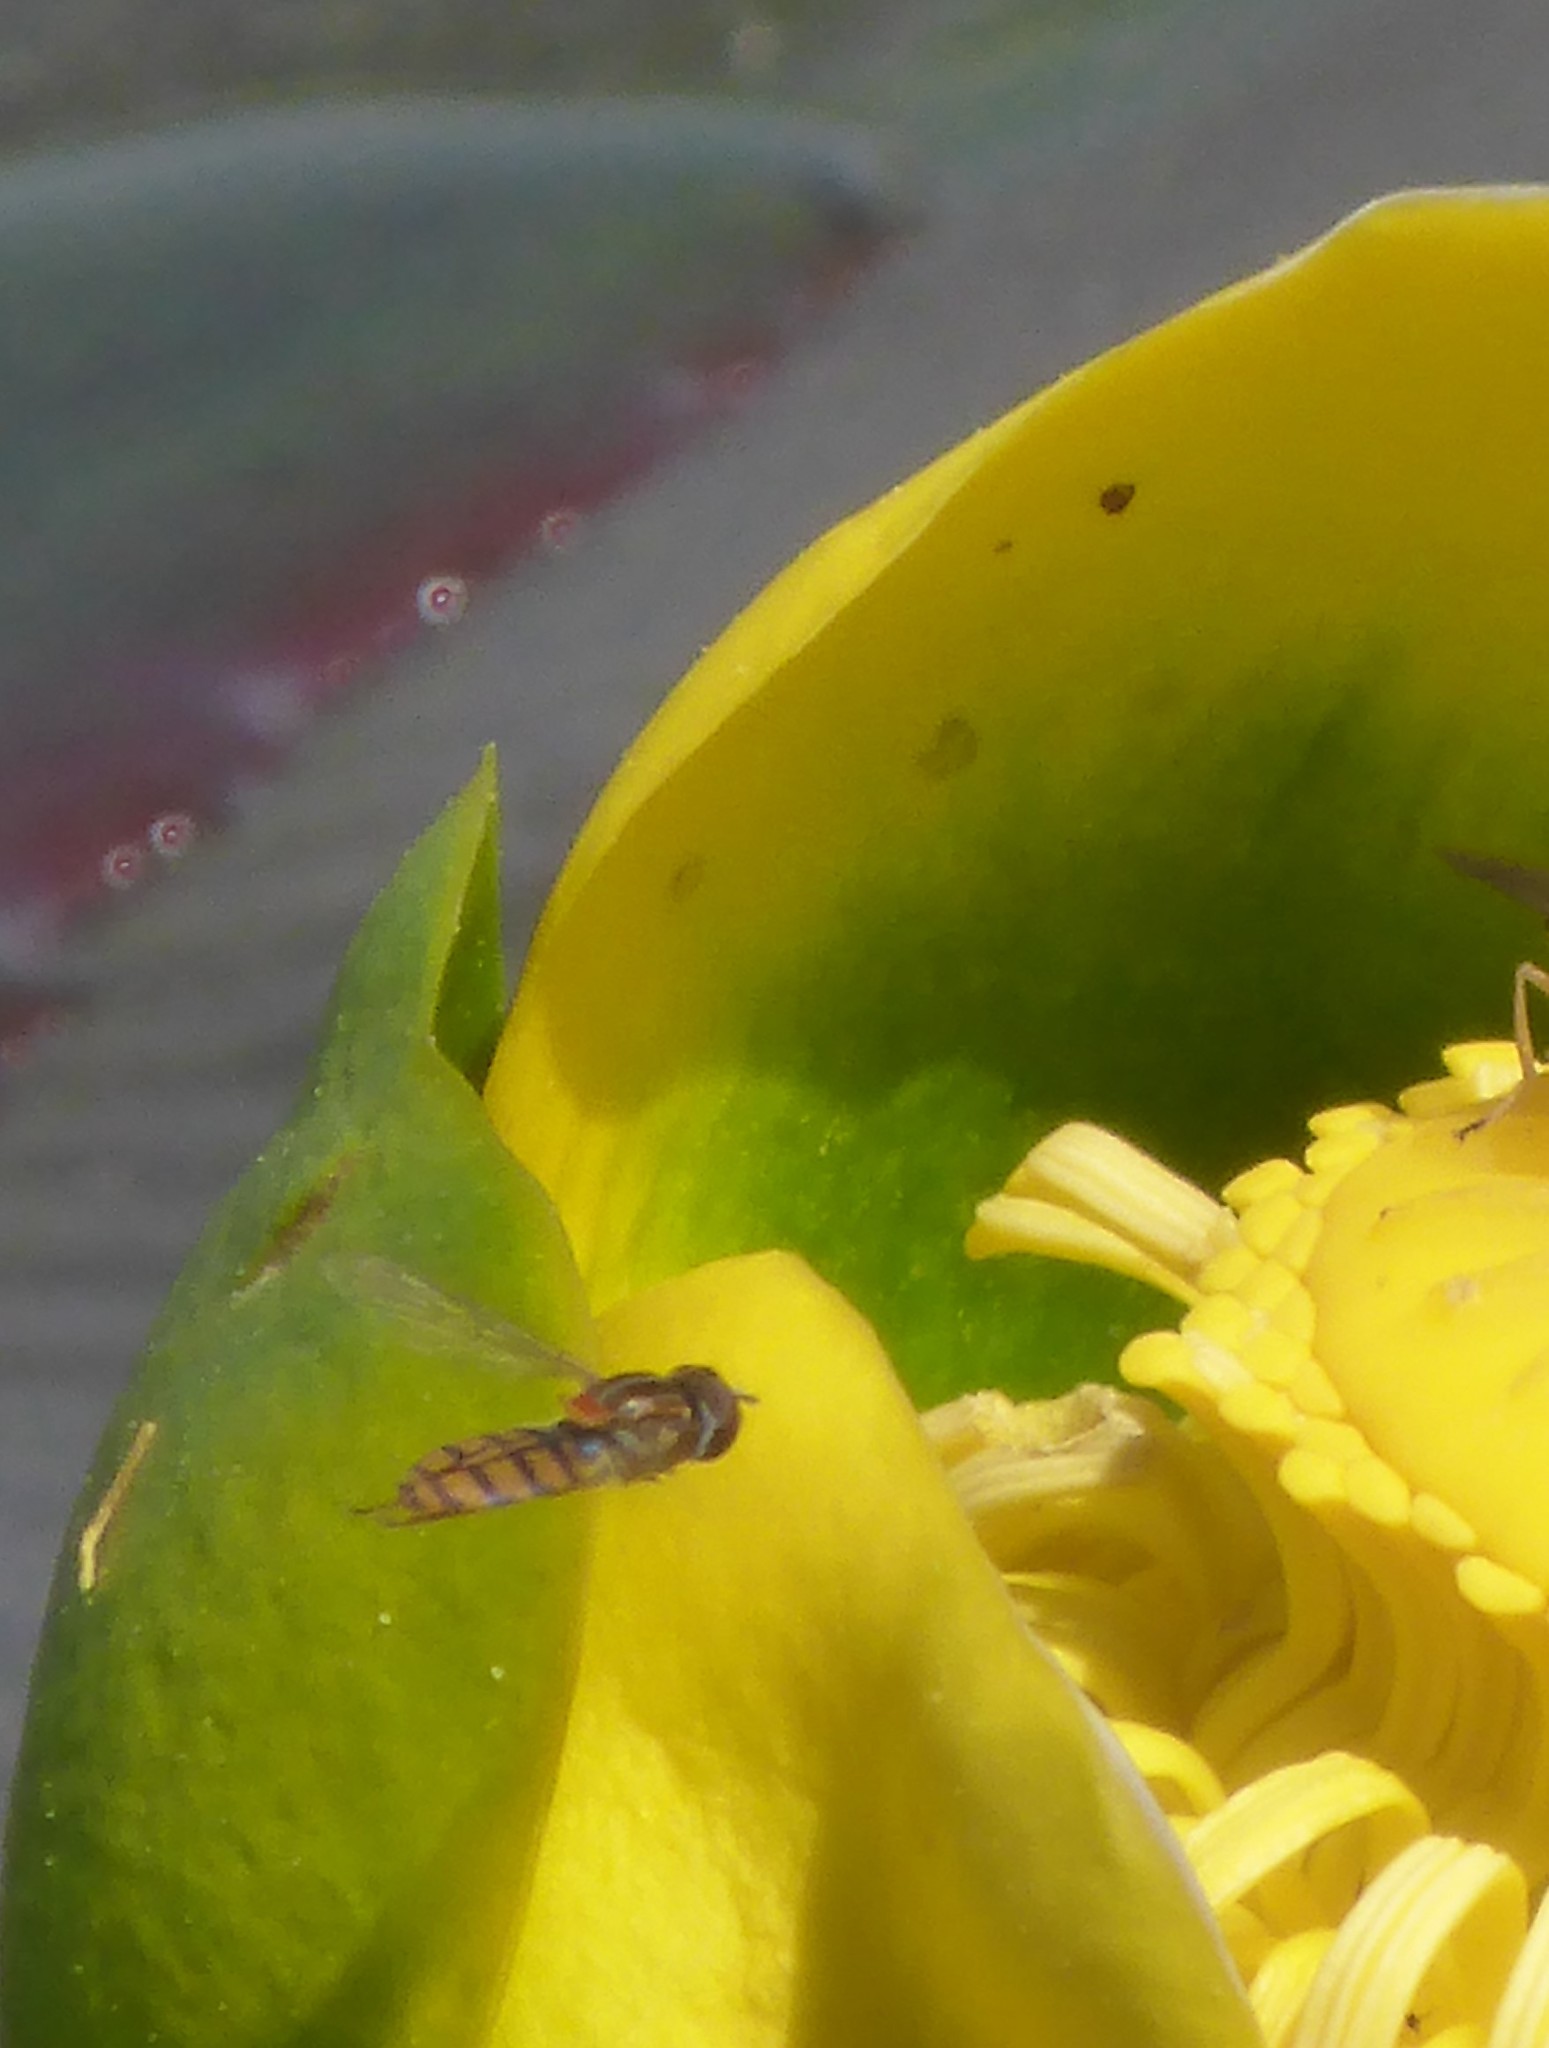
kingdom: Animalia
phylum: Arthropoda
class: Insecta
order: Diptera
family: Syrphidae
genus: Toxomerus
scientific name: Toxomerus jussiaeae
